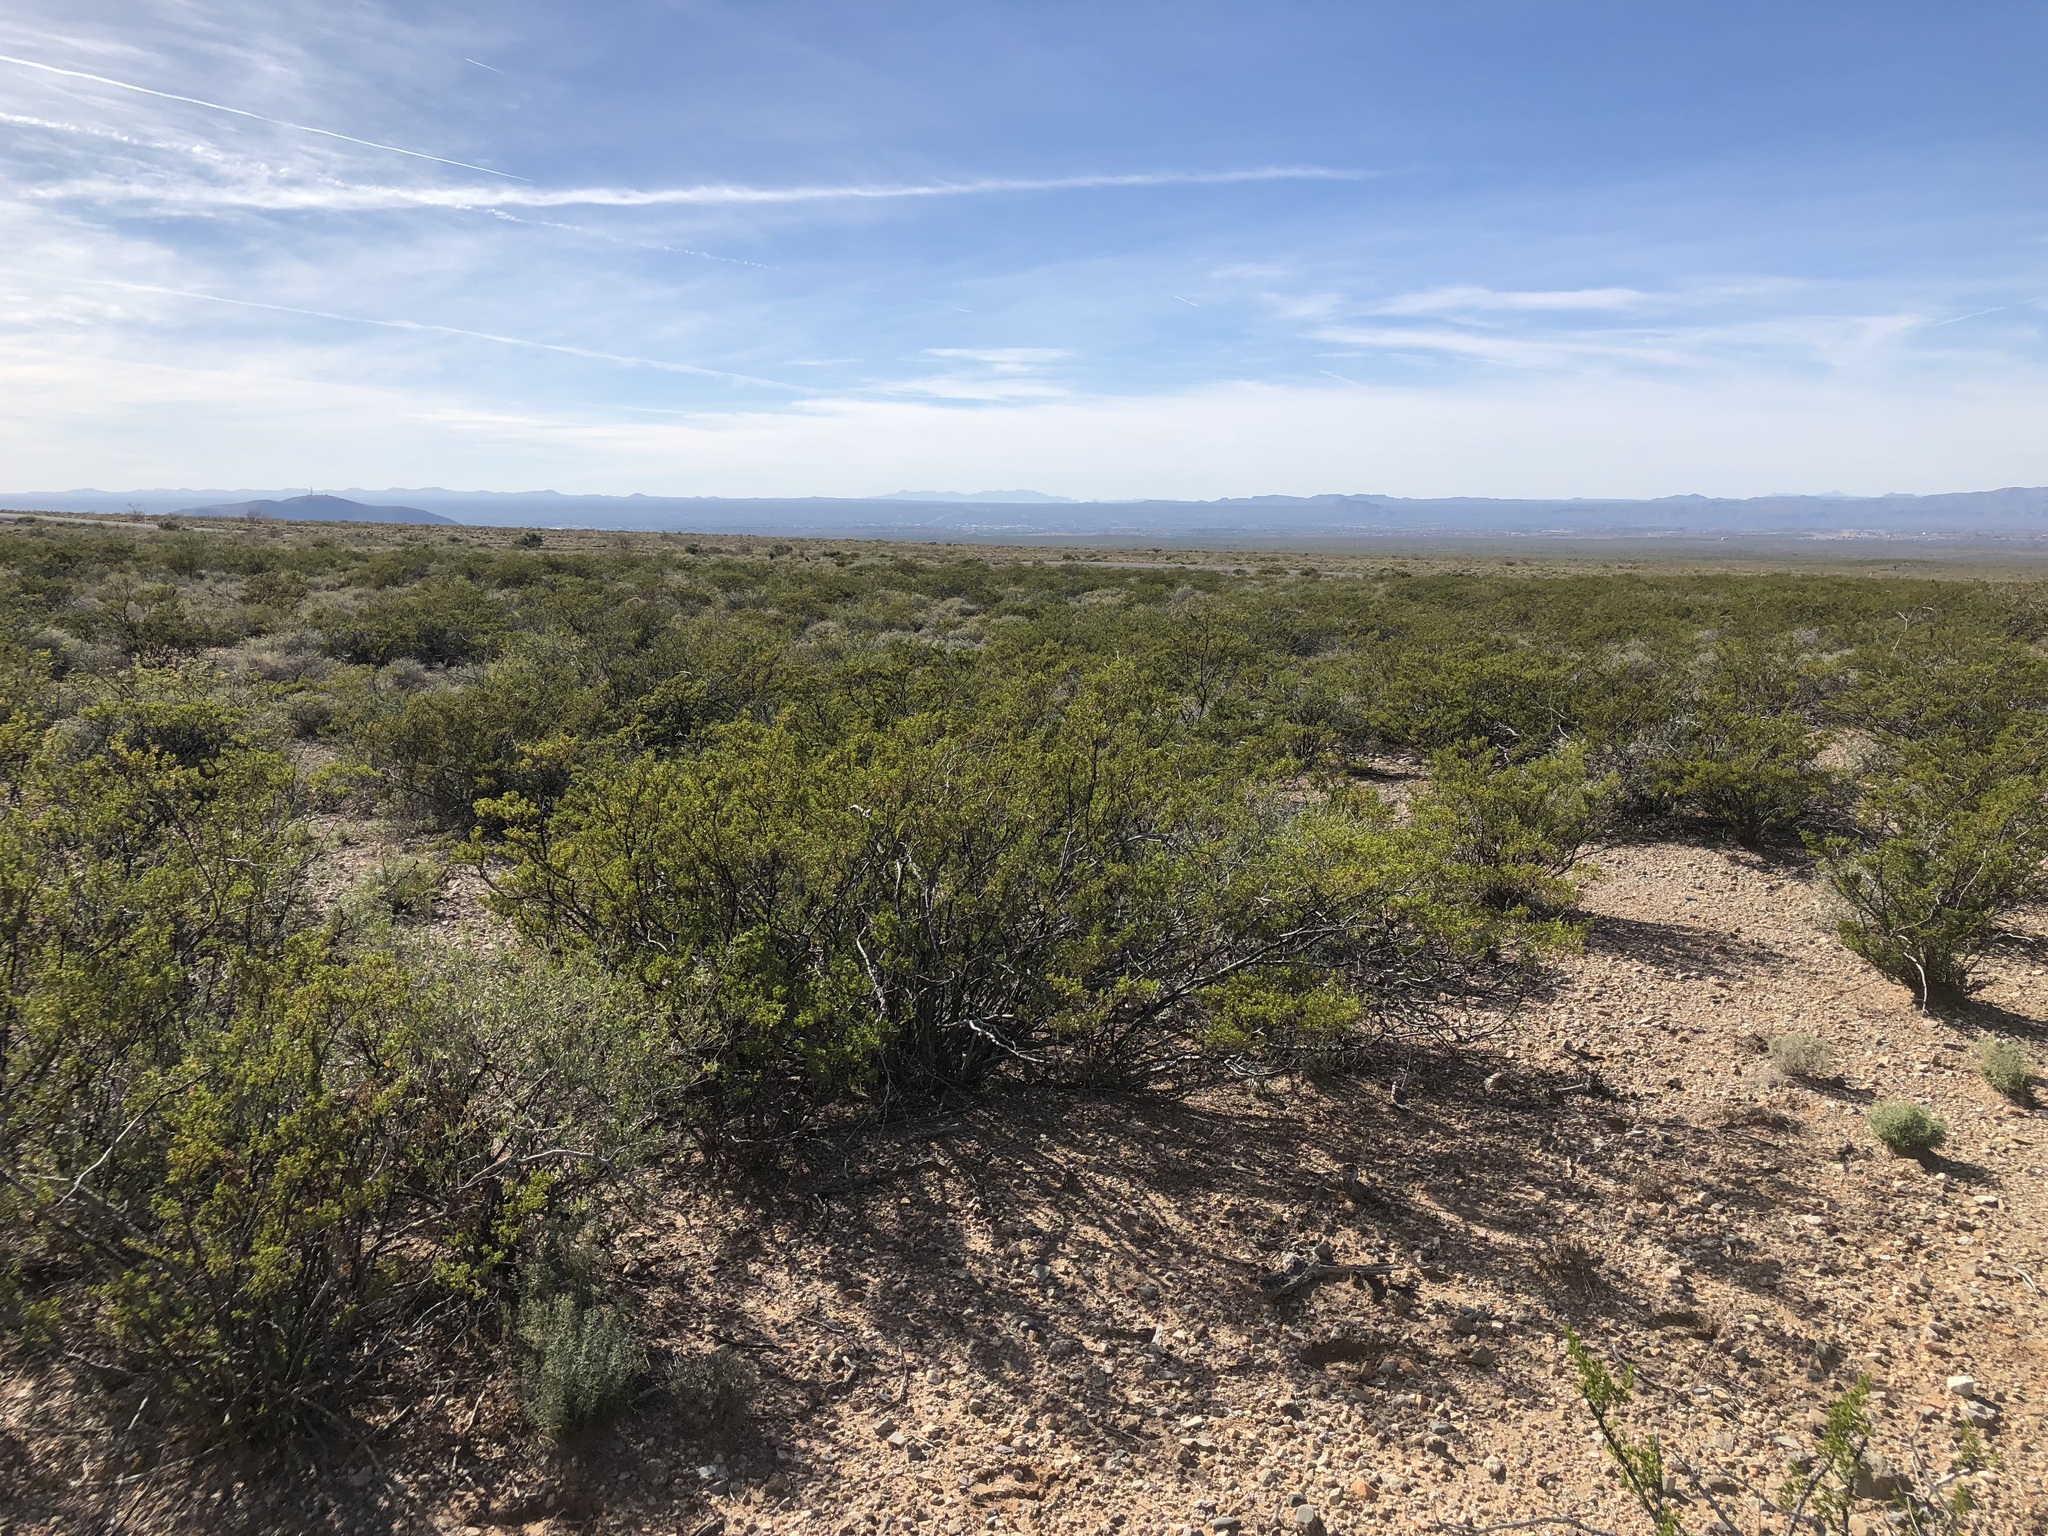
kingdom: Plantae
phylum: Tracheophyta
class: Magnoliopsida
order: Zygophyllales
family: Zygophyllaceae
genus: Larrea
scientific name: Larrea tridentata
